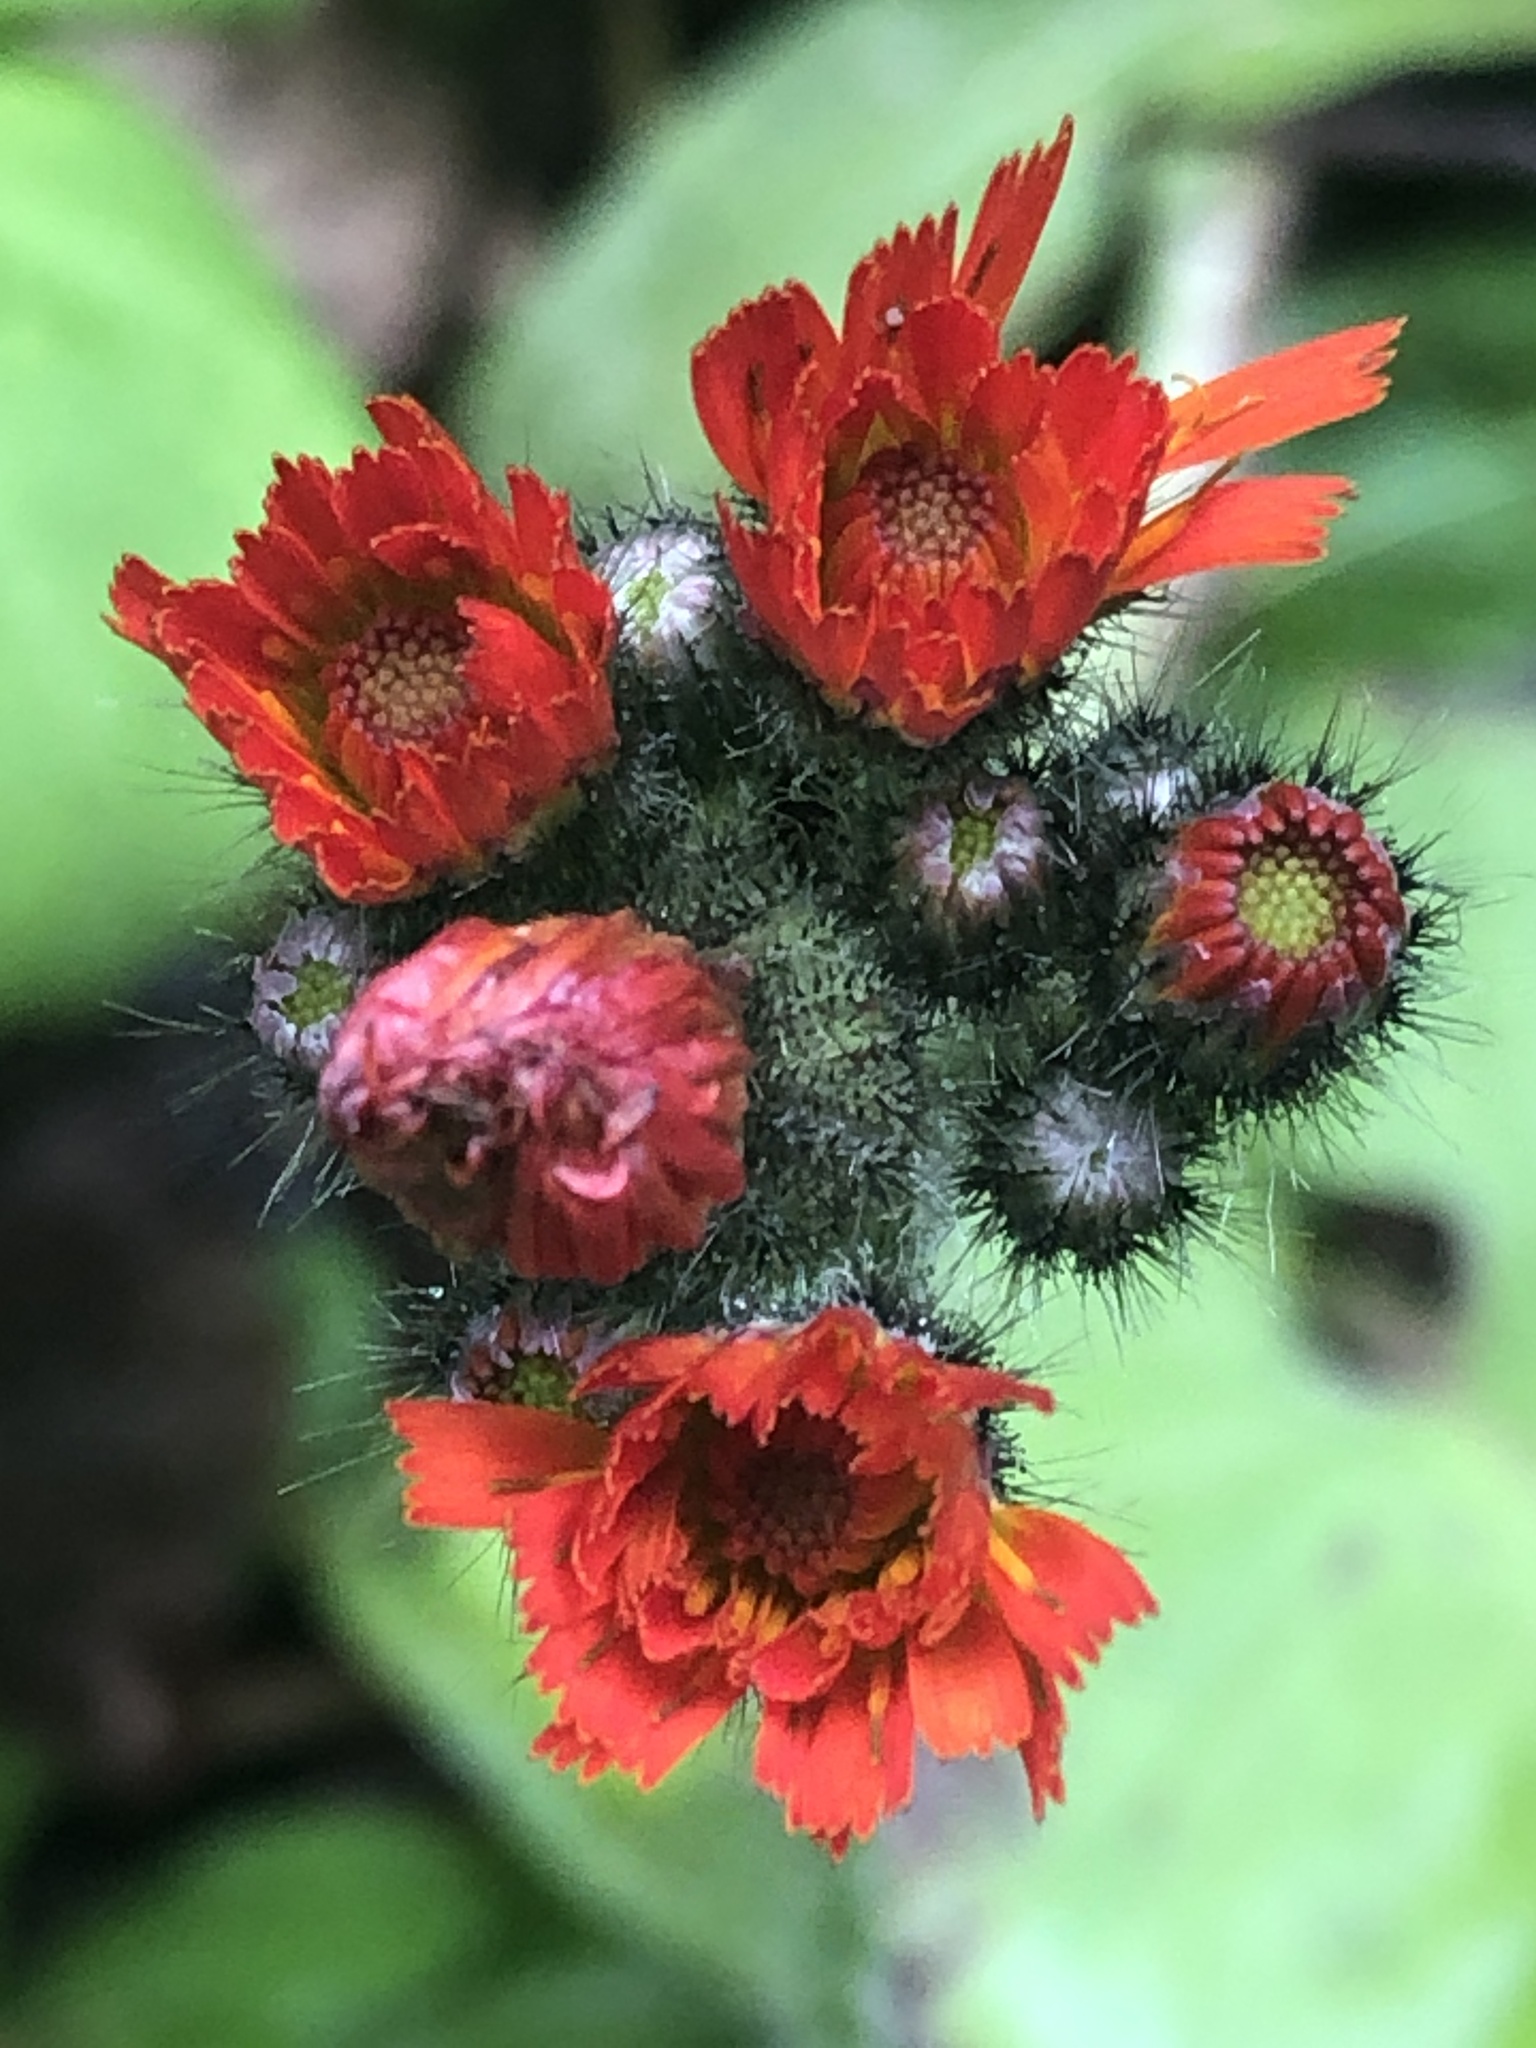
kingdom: Plantae
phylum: Tracheophyta
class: Magnoliopsida
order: Asterales
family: Asteraceae
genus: Pilosella
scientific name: Pilosella aurantiaca
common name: Fox-and-cubs
